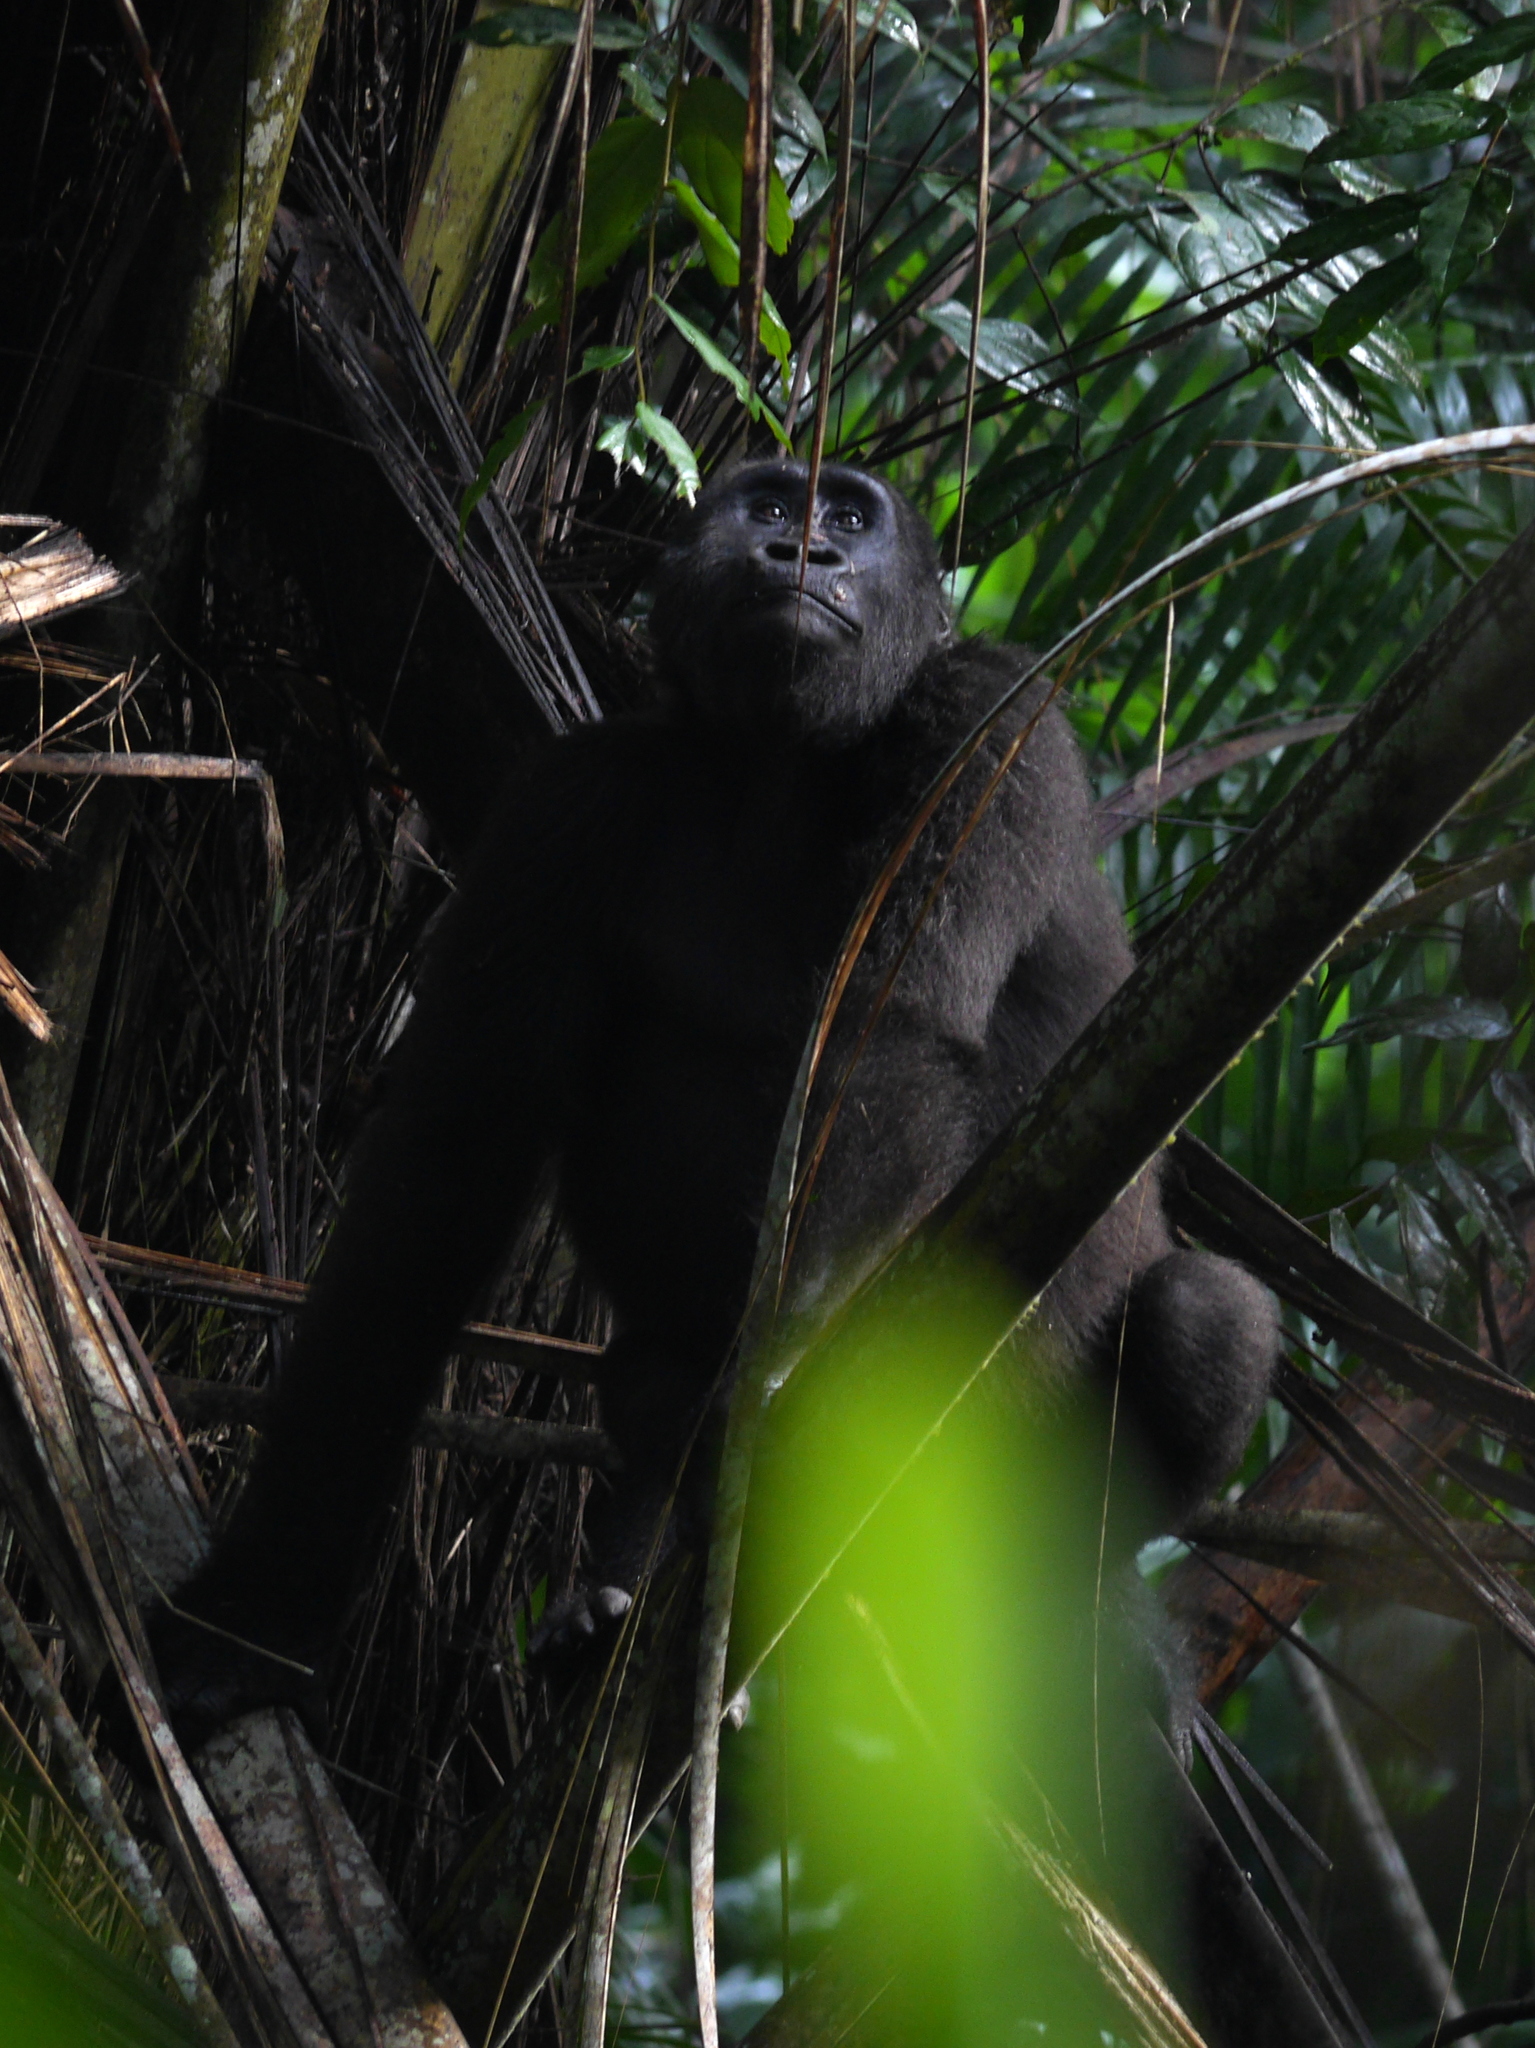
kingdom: Animalia
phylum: Chordata
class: Mammalia
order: Primates
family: Hominidae
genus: Gorilla
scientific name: Gorilla gorilla
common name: Western gorilla
